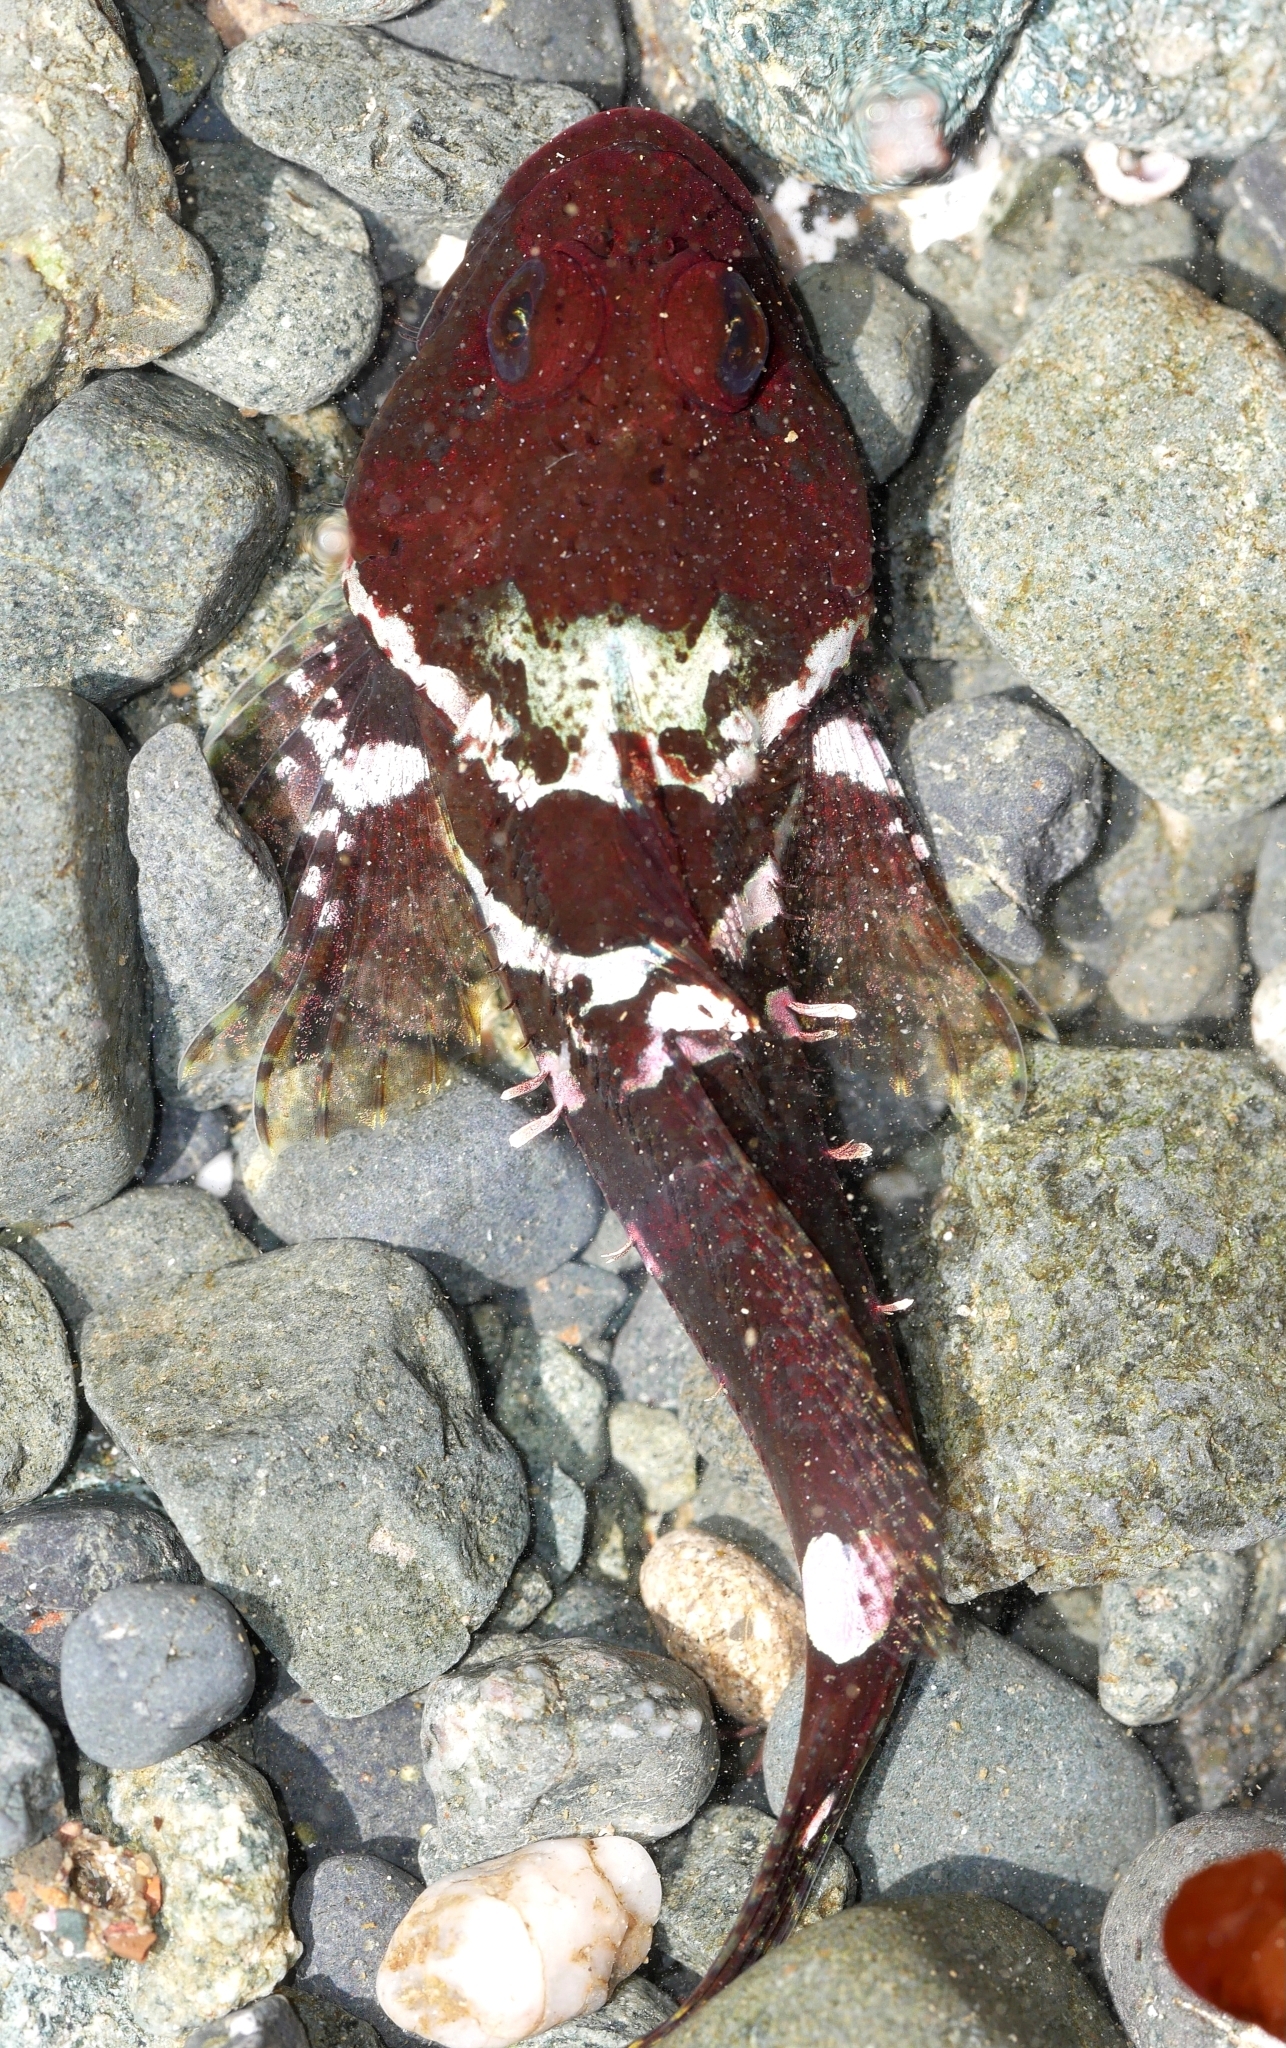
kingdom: Animalia
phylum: Chordata
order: Scorpaeniformes
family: Cottidae
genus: Artedius
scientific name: Artedius lateralis
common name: Smooth-head sculpin
